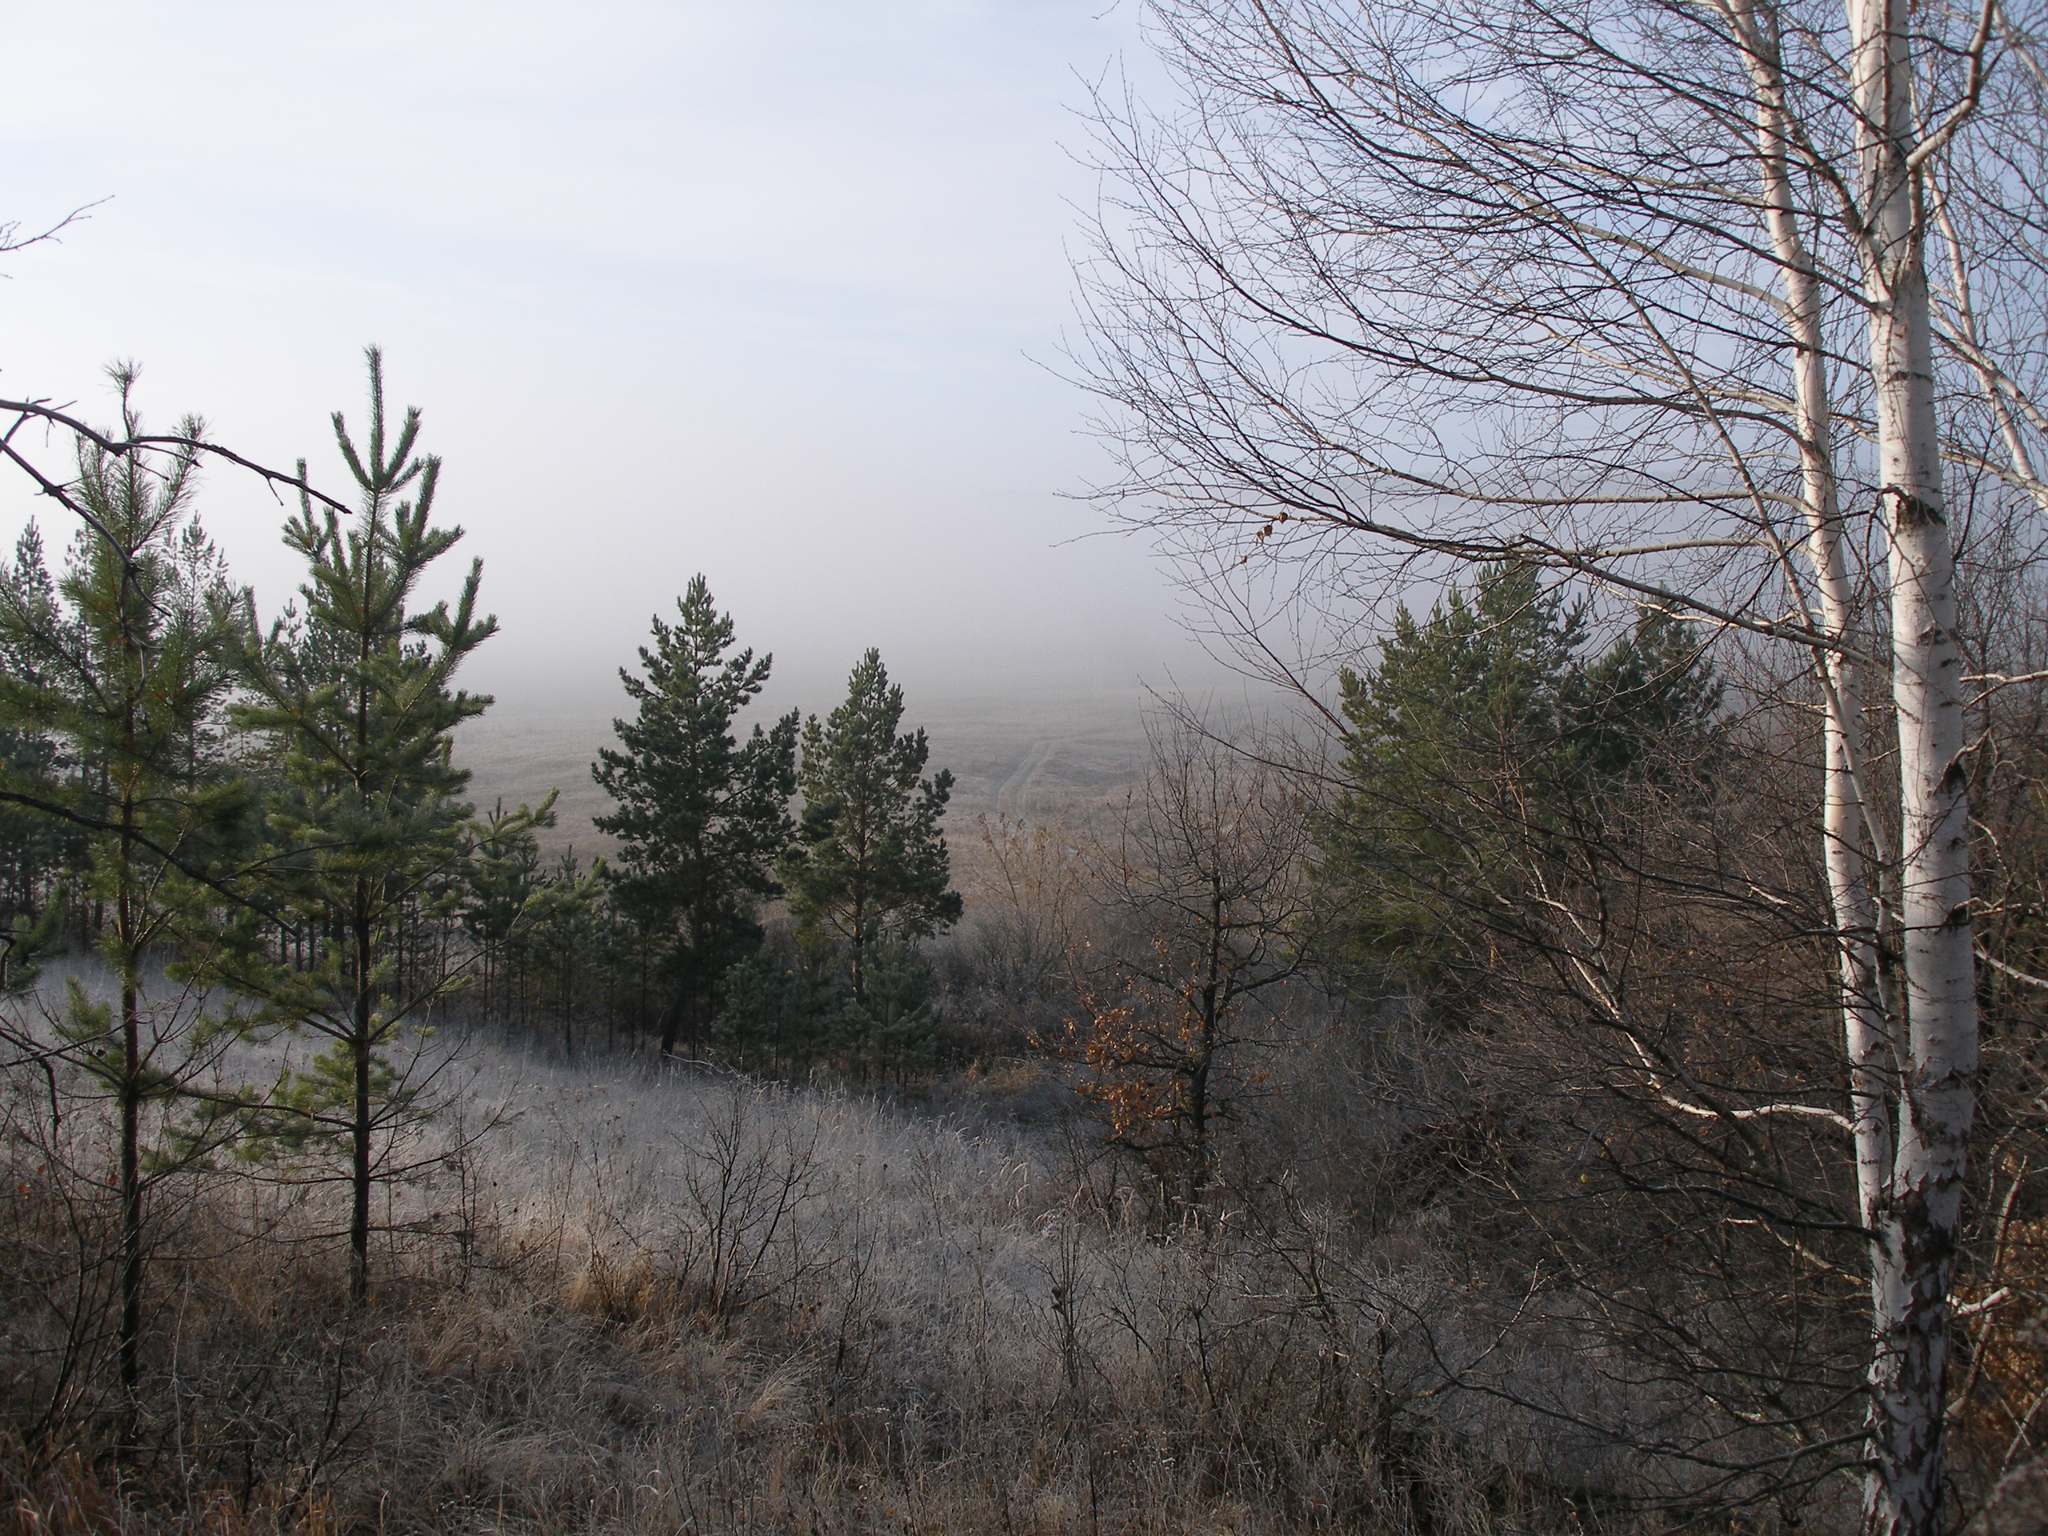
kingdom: Plantae
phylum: Tracheophyta
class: Pinopsida
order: Pinales
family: Pinaceae
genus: Pinus
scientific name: Pinus sylvestris
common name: Scots pine
